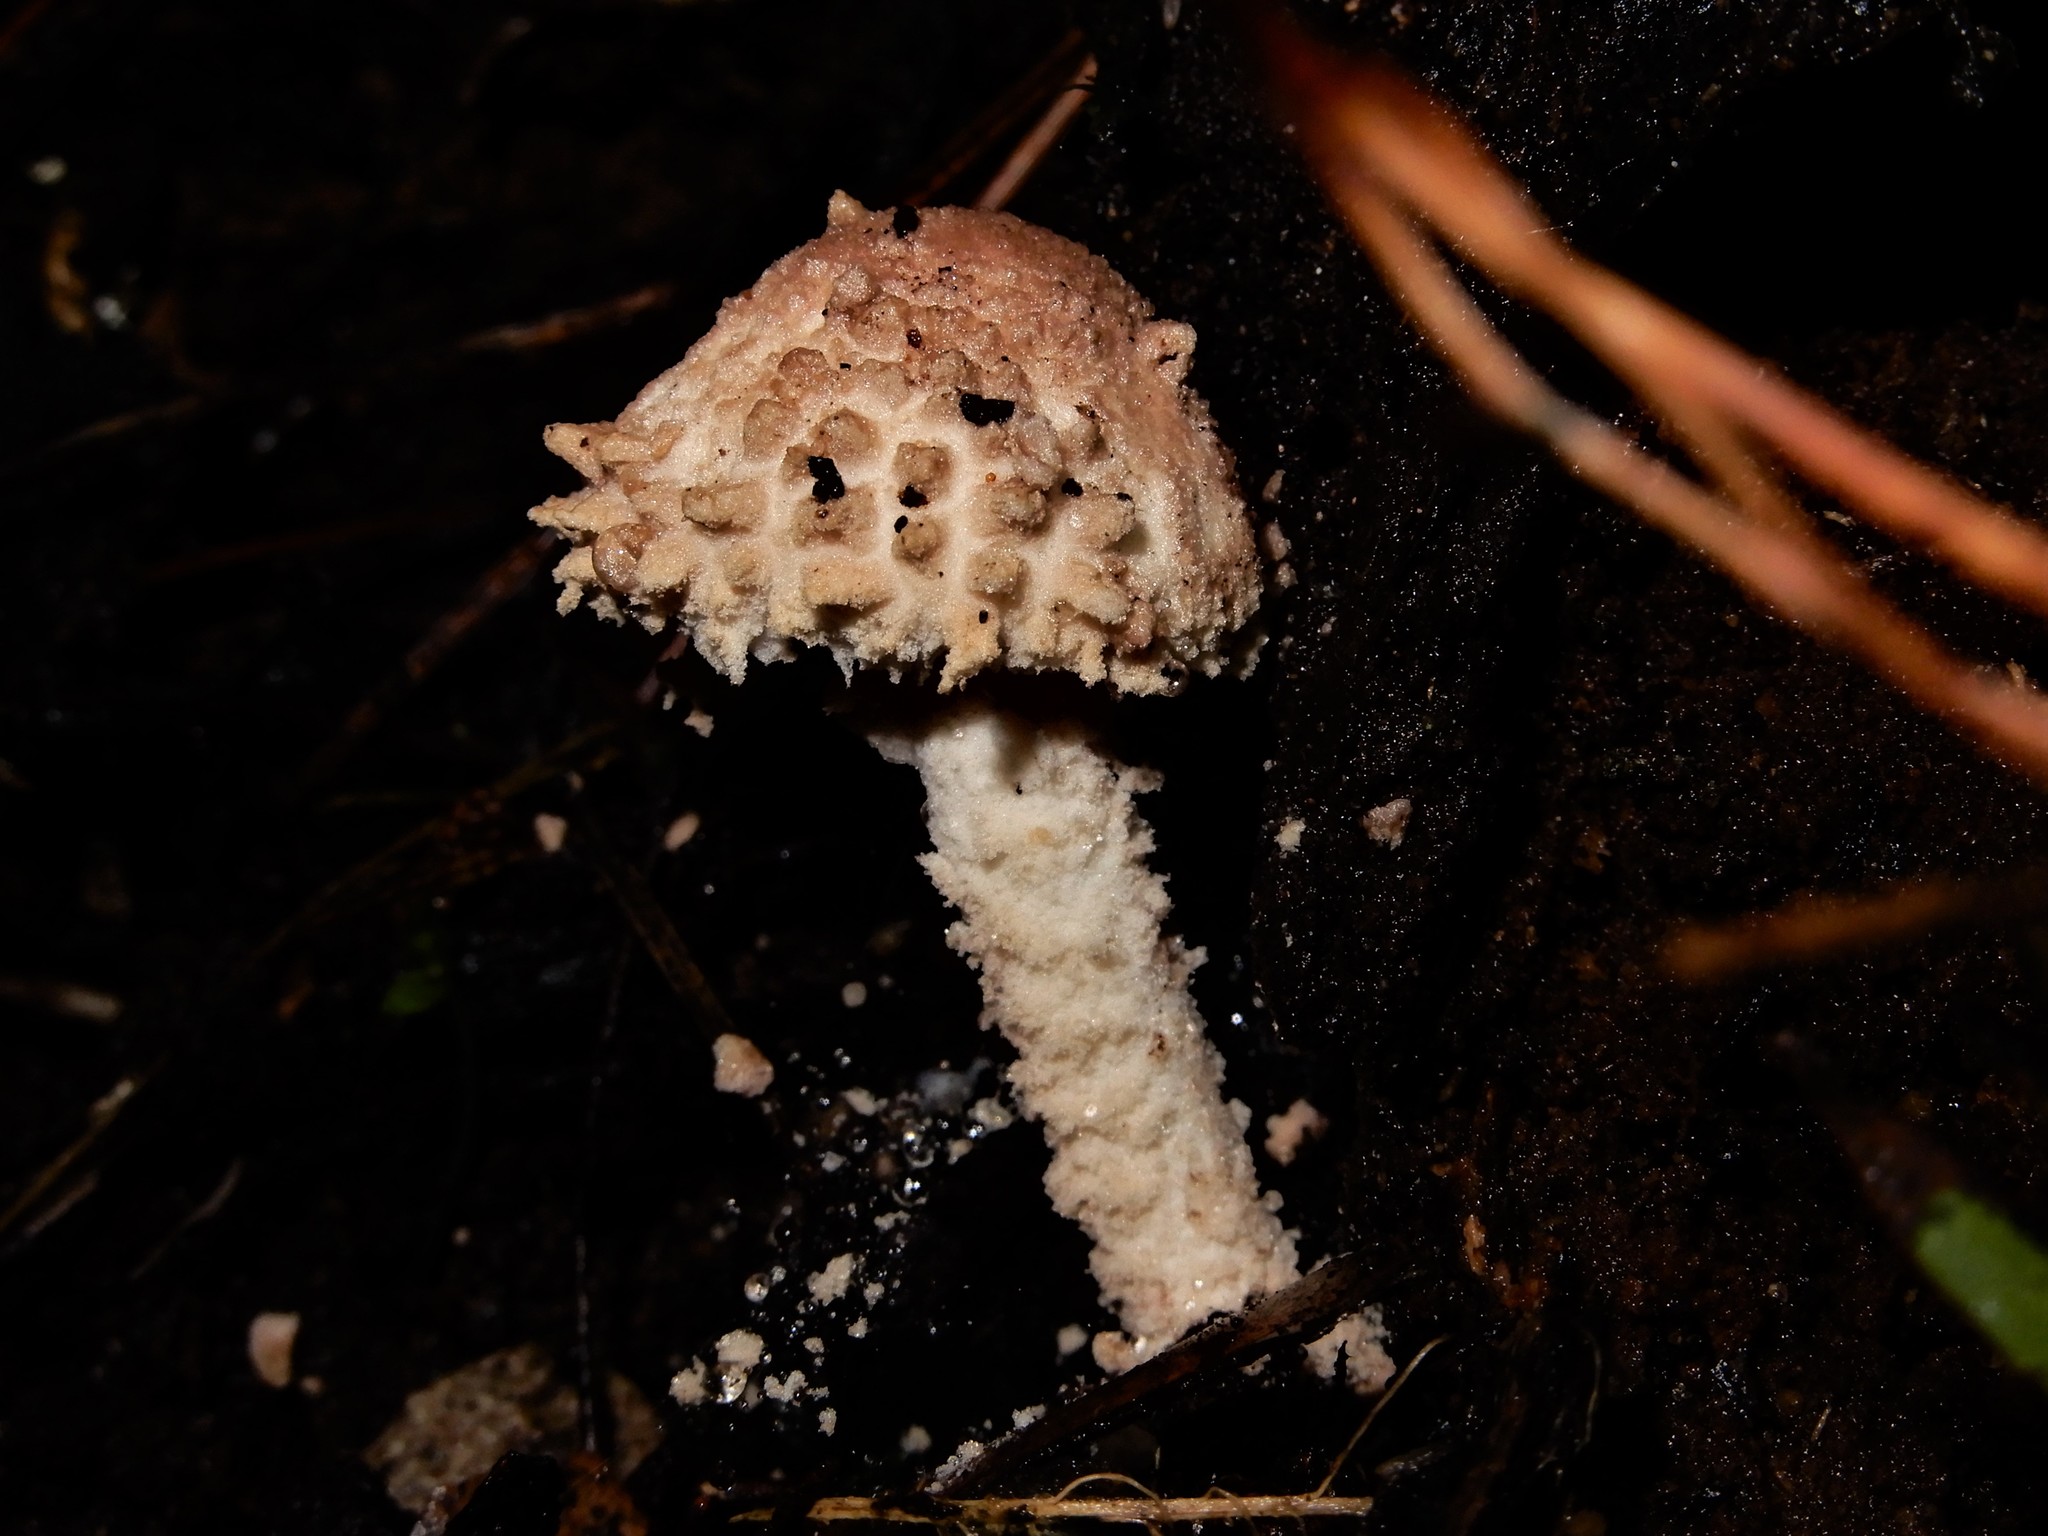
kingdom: Fungi
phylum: Basidiomycota
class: Agaricomycetes
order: Agaricales
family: Agaricaceae
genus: Cystolepiota
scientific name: Cystolepiota
